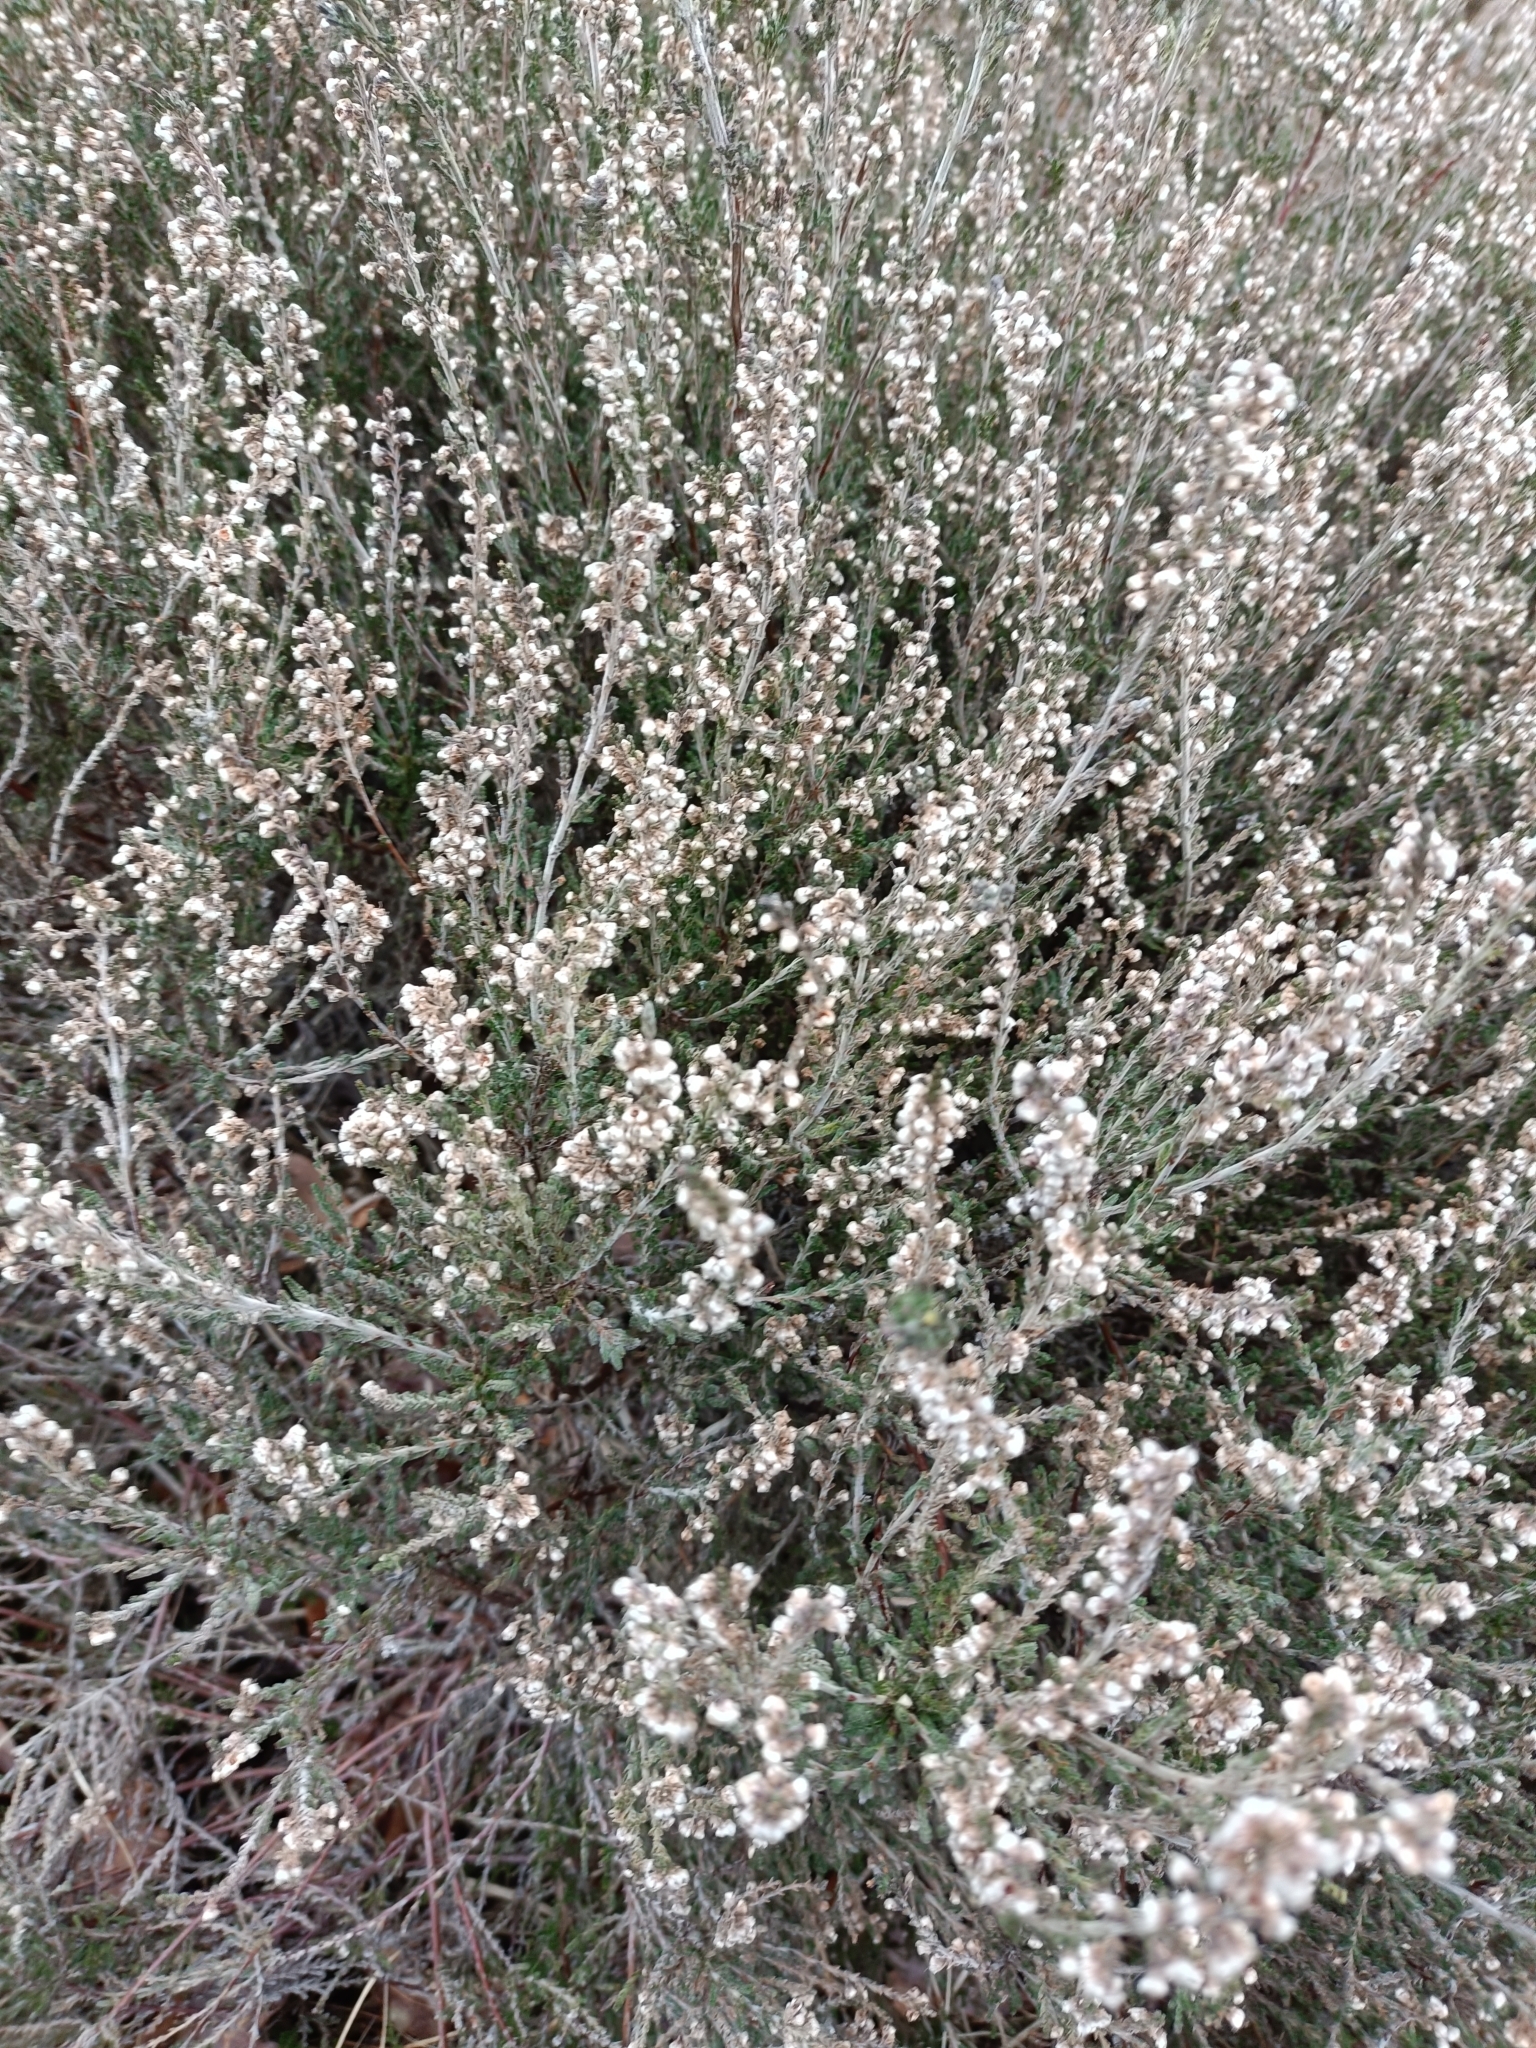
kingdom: Plantae
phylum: Tracheophyta
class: Magnoliopsida
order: Ericales
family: Ericaceae
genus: Calluna
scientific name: Calluna vulgaris
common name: Heather
